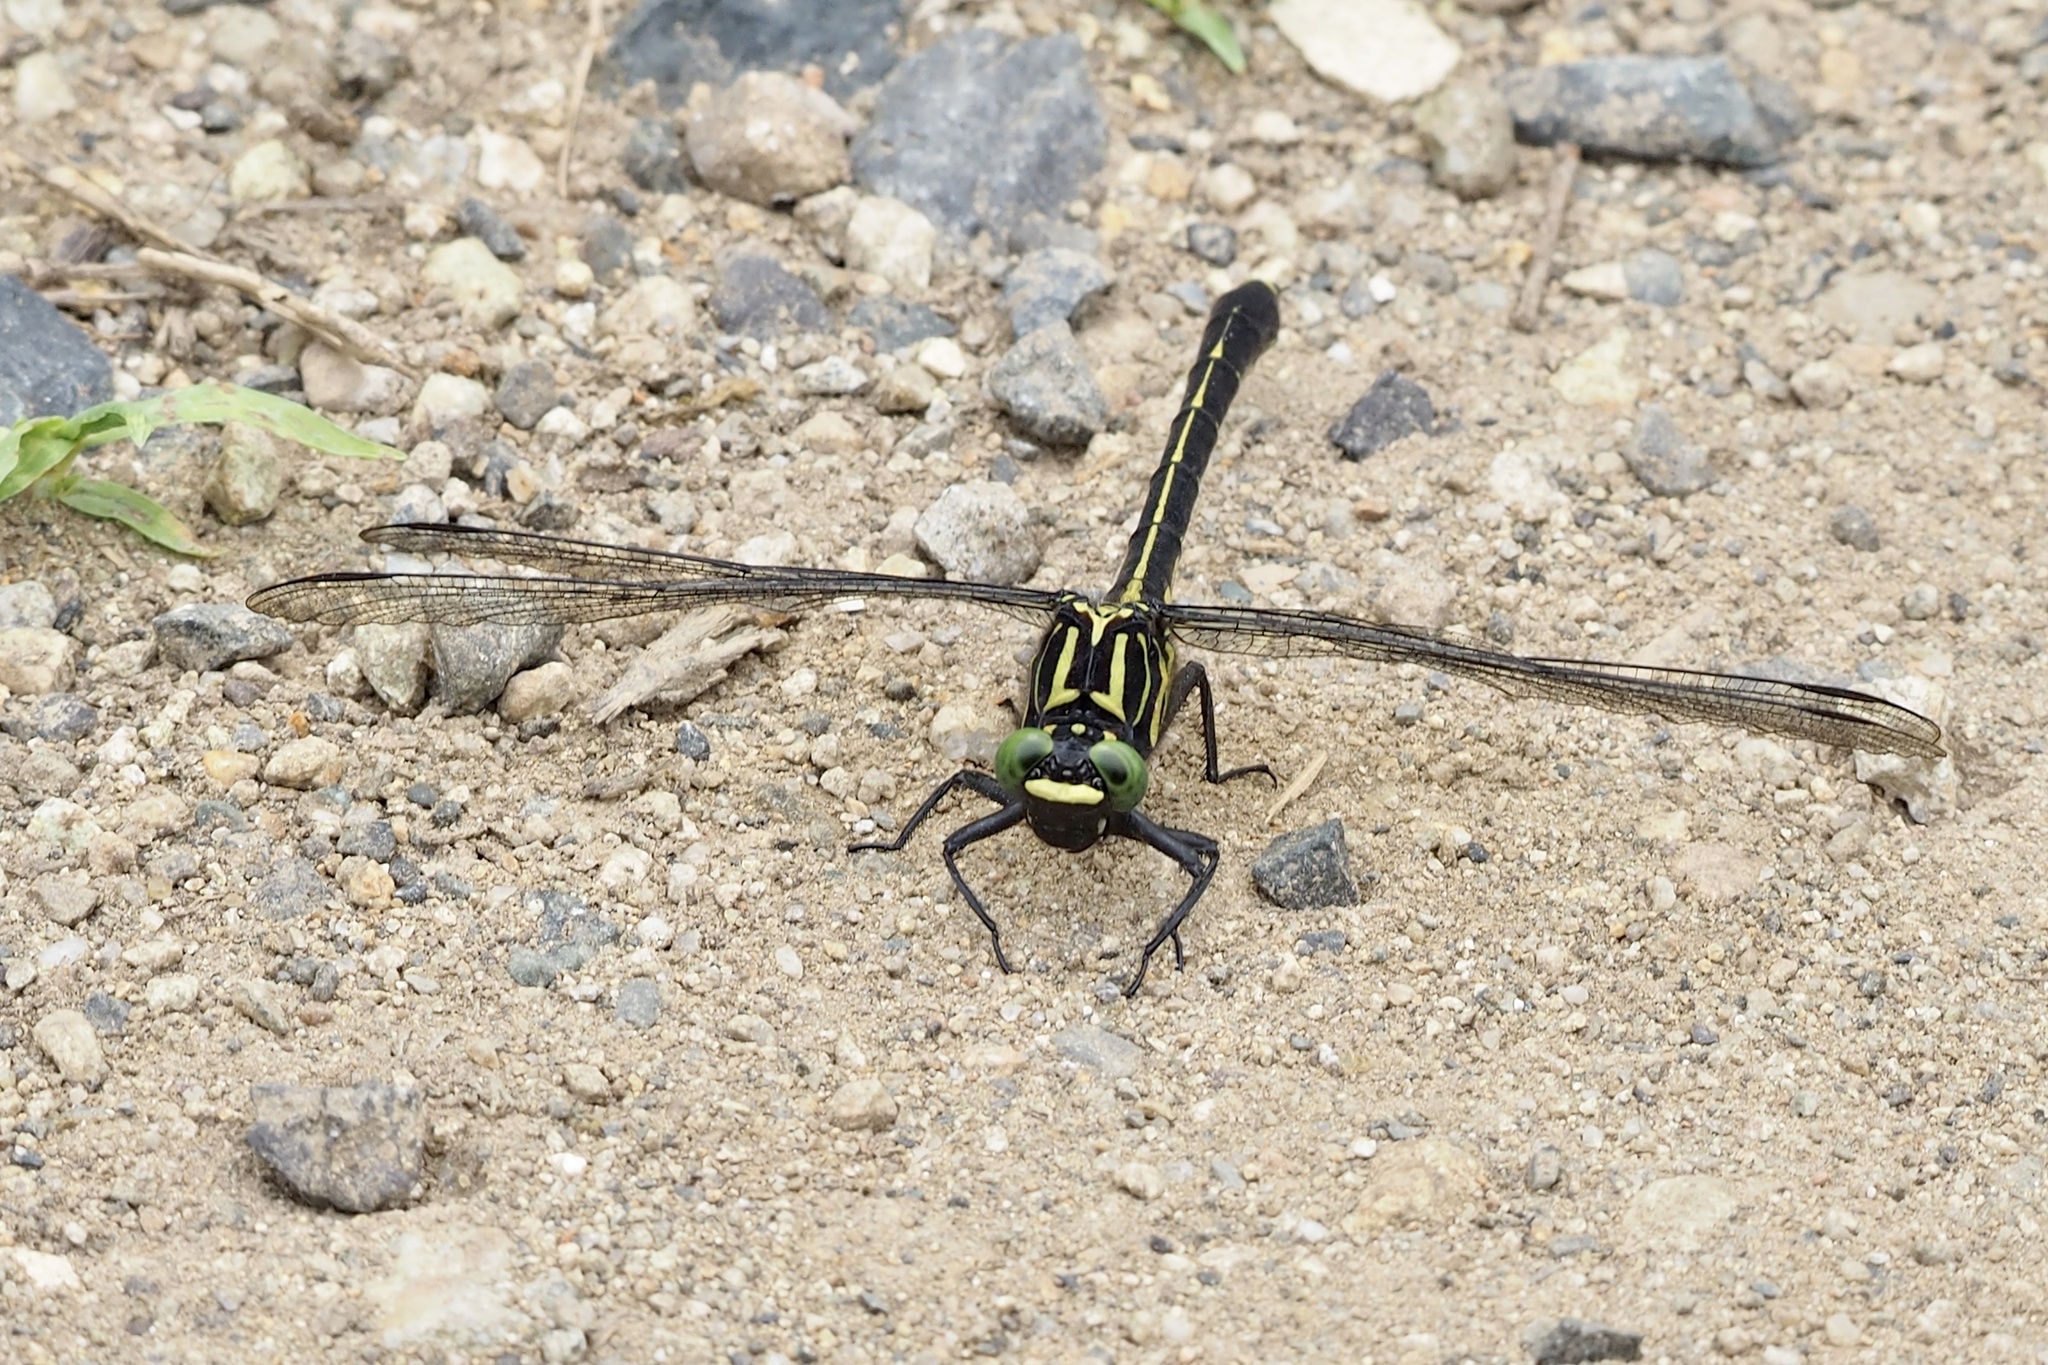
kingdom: Animalia
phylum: Arthropoda
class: Insecta
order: Odonata
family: Gomphidae
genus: Asiagomphus
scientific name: Asiagomphus melaenops
